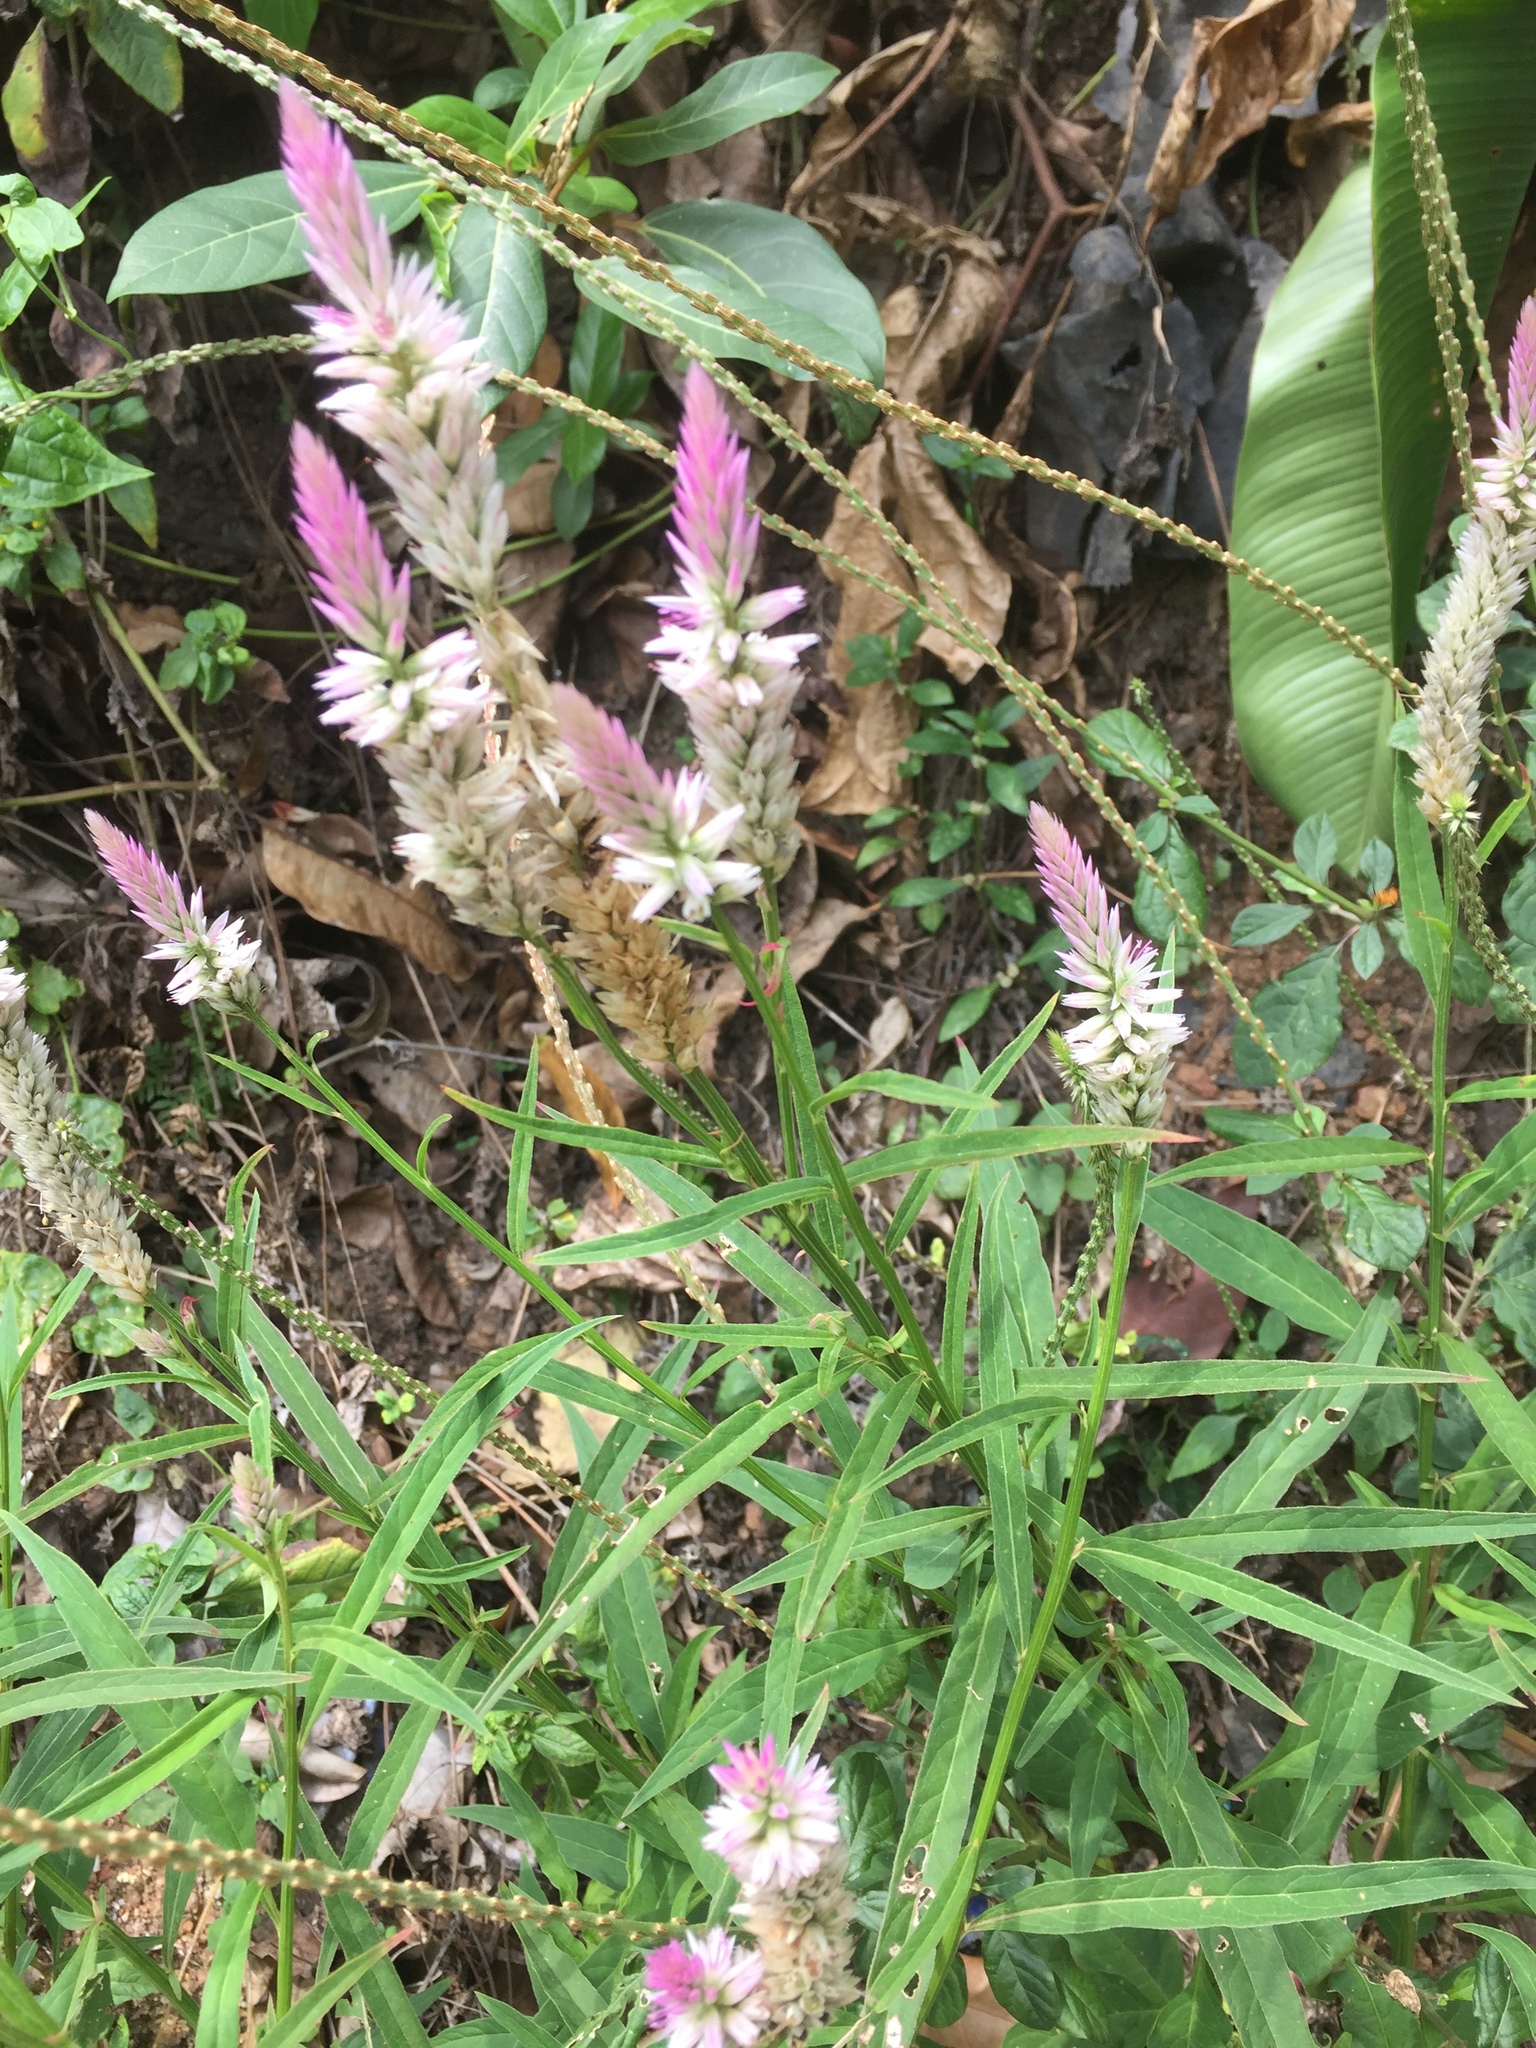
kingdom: Plantae
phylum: Tracheophyta
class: Magnoliopsida
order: Caryophyllales
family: Amaranthaceae
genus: Celosia
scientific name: Celosia argentea
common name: Feather cockscomb
